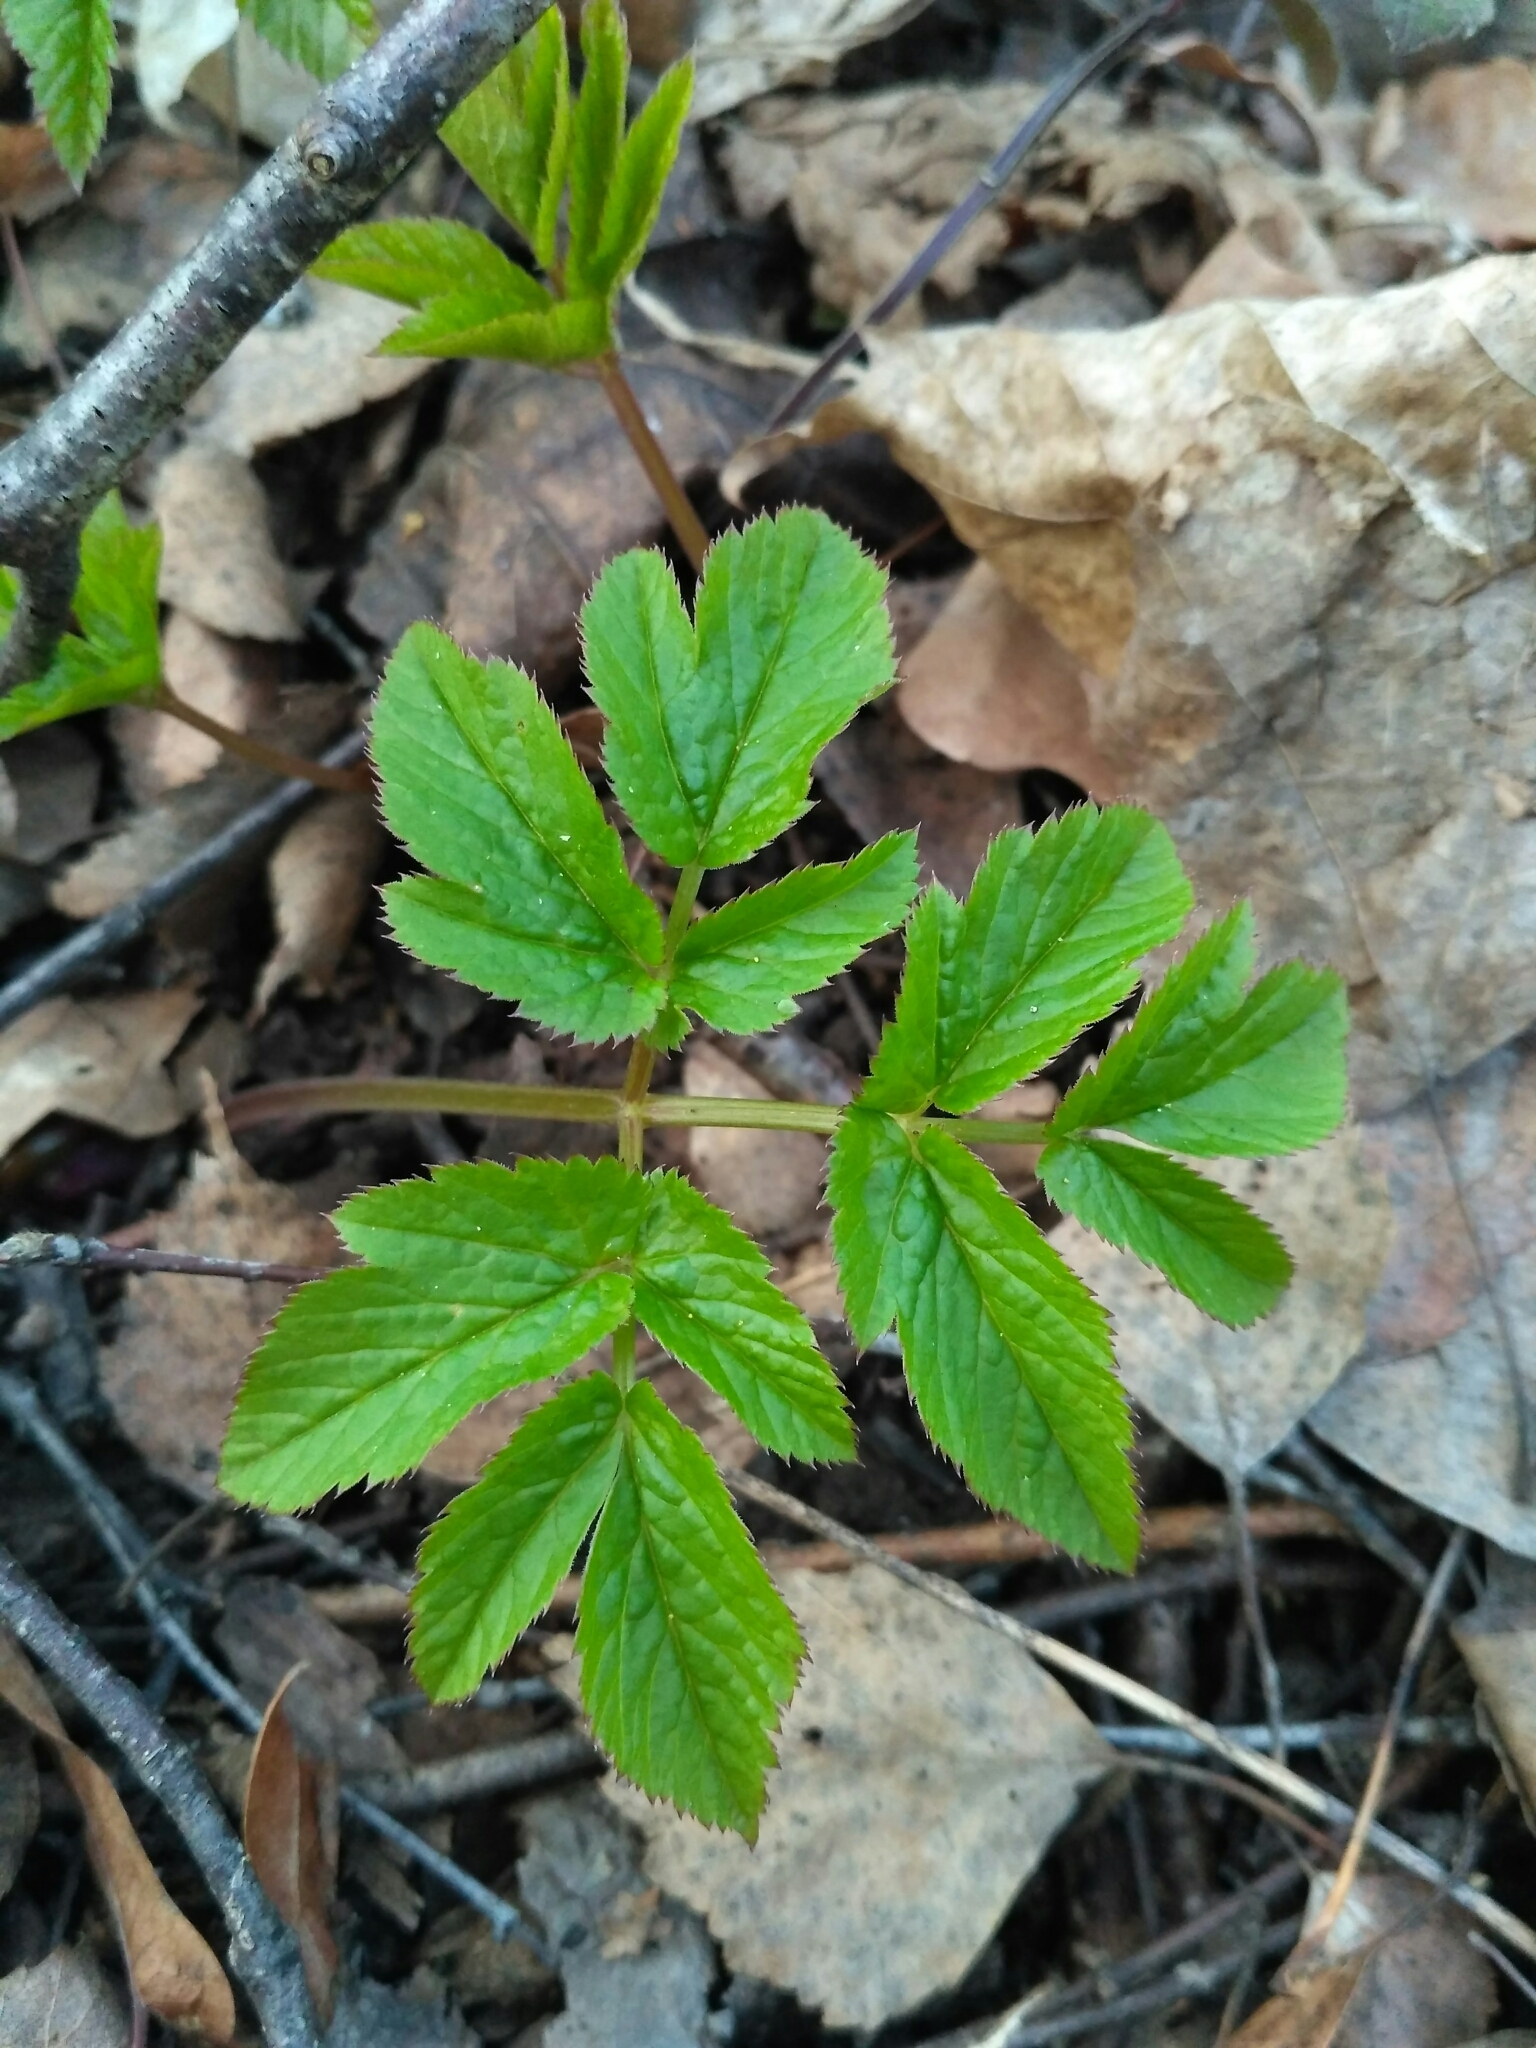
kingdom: Plantae
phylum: Tracheophyta
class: Magnoliopsida
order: Apiales
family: Apiaceae
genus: Aegopodium
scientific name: Aegopodium podagraria
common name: Ground-elder
